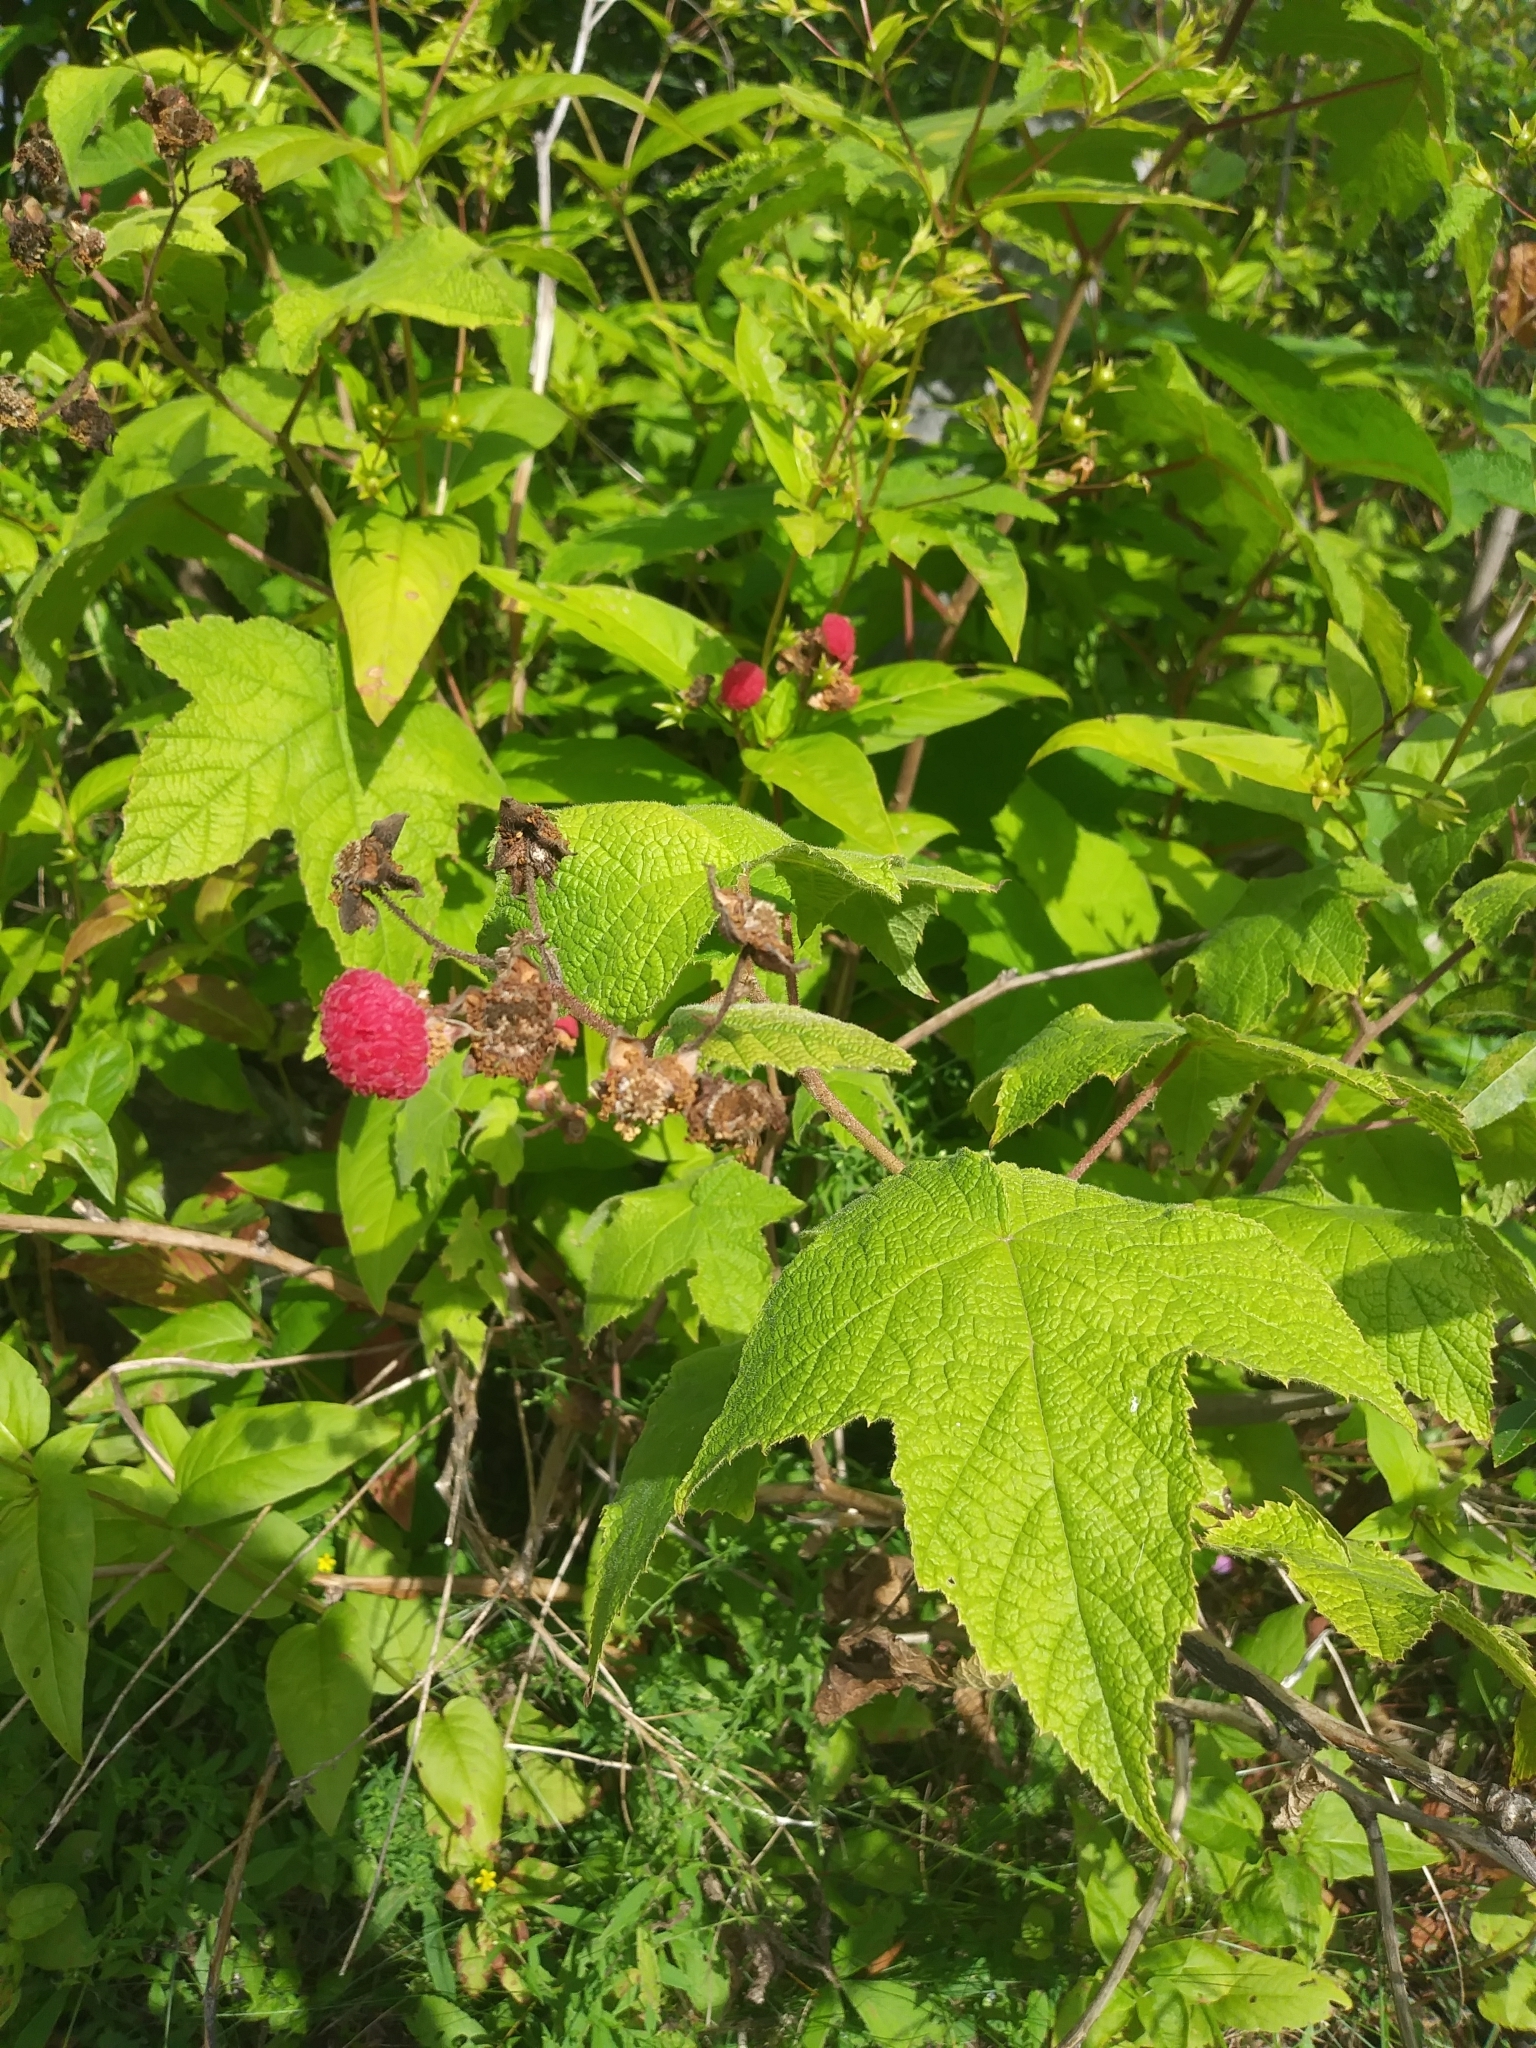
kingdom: Plantae
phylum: Tracheophyta
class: Magnoliopsida
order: Rosales
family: Rosaceae
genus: Rubus
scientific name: Rubus odoratus
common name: Purple-flowered raspberry
